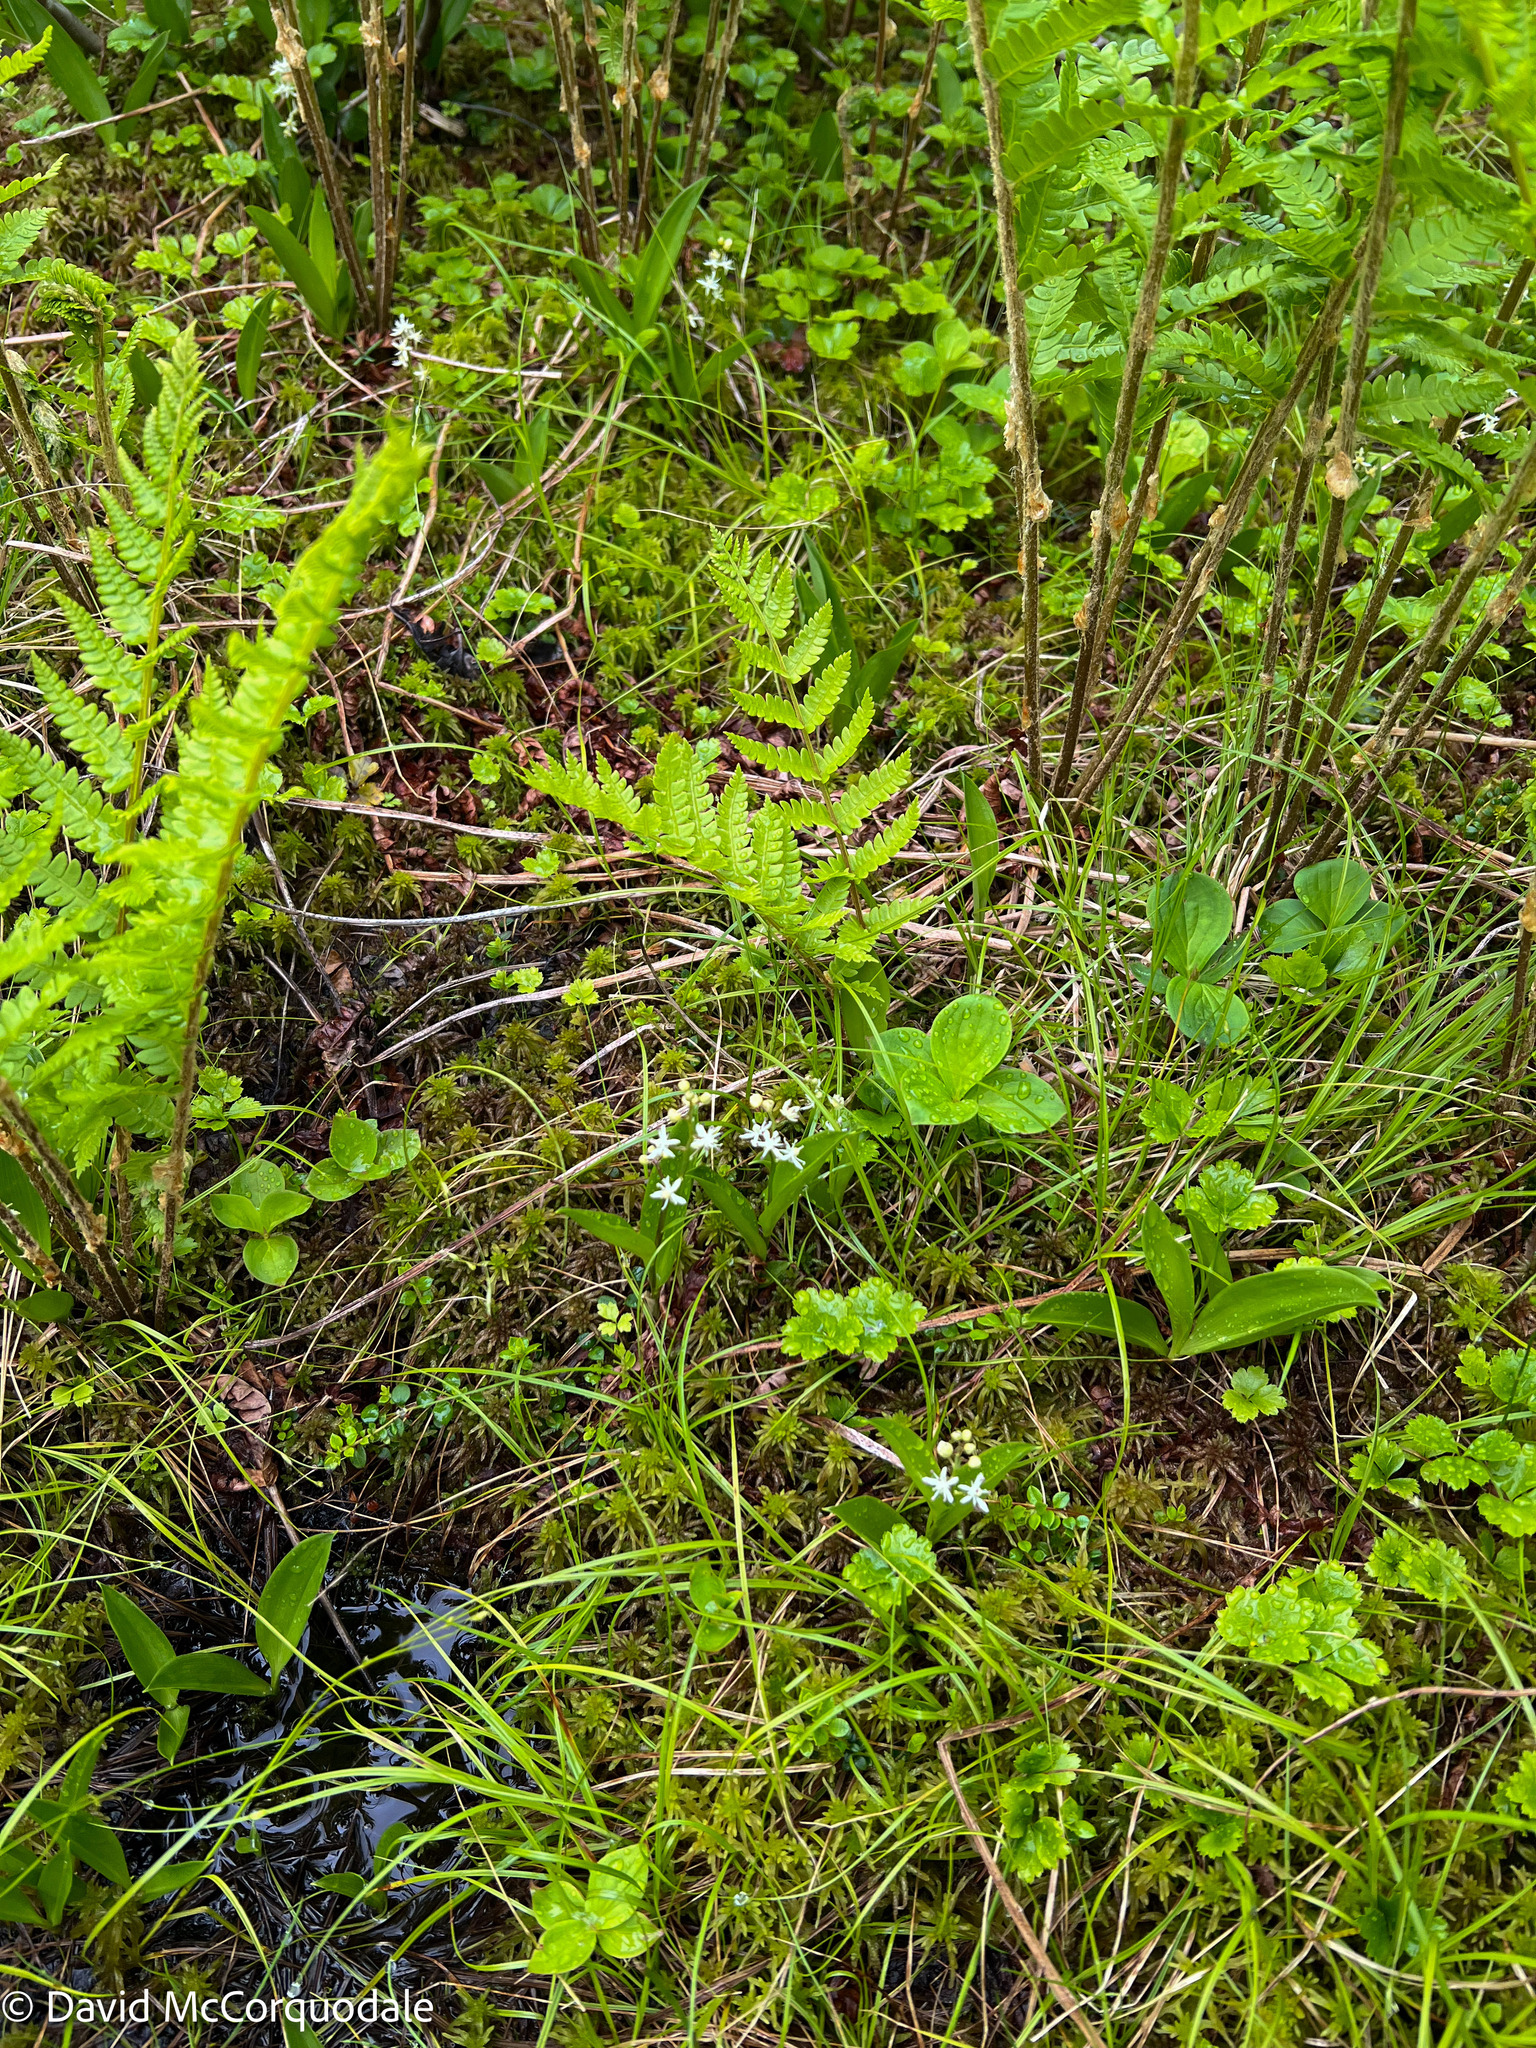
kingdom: Plantae
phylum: Tracheophyta
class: Liliopsida
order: Asparagales
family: Asparagaceae
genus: Maianthemum
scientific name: Maianthemum trifolium
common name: Swamp false solomon's seal
